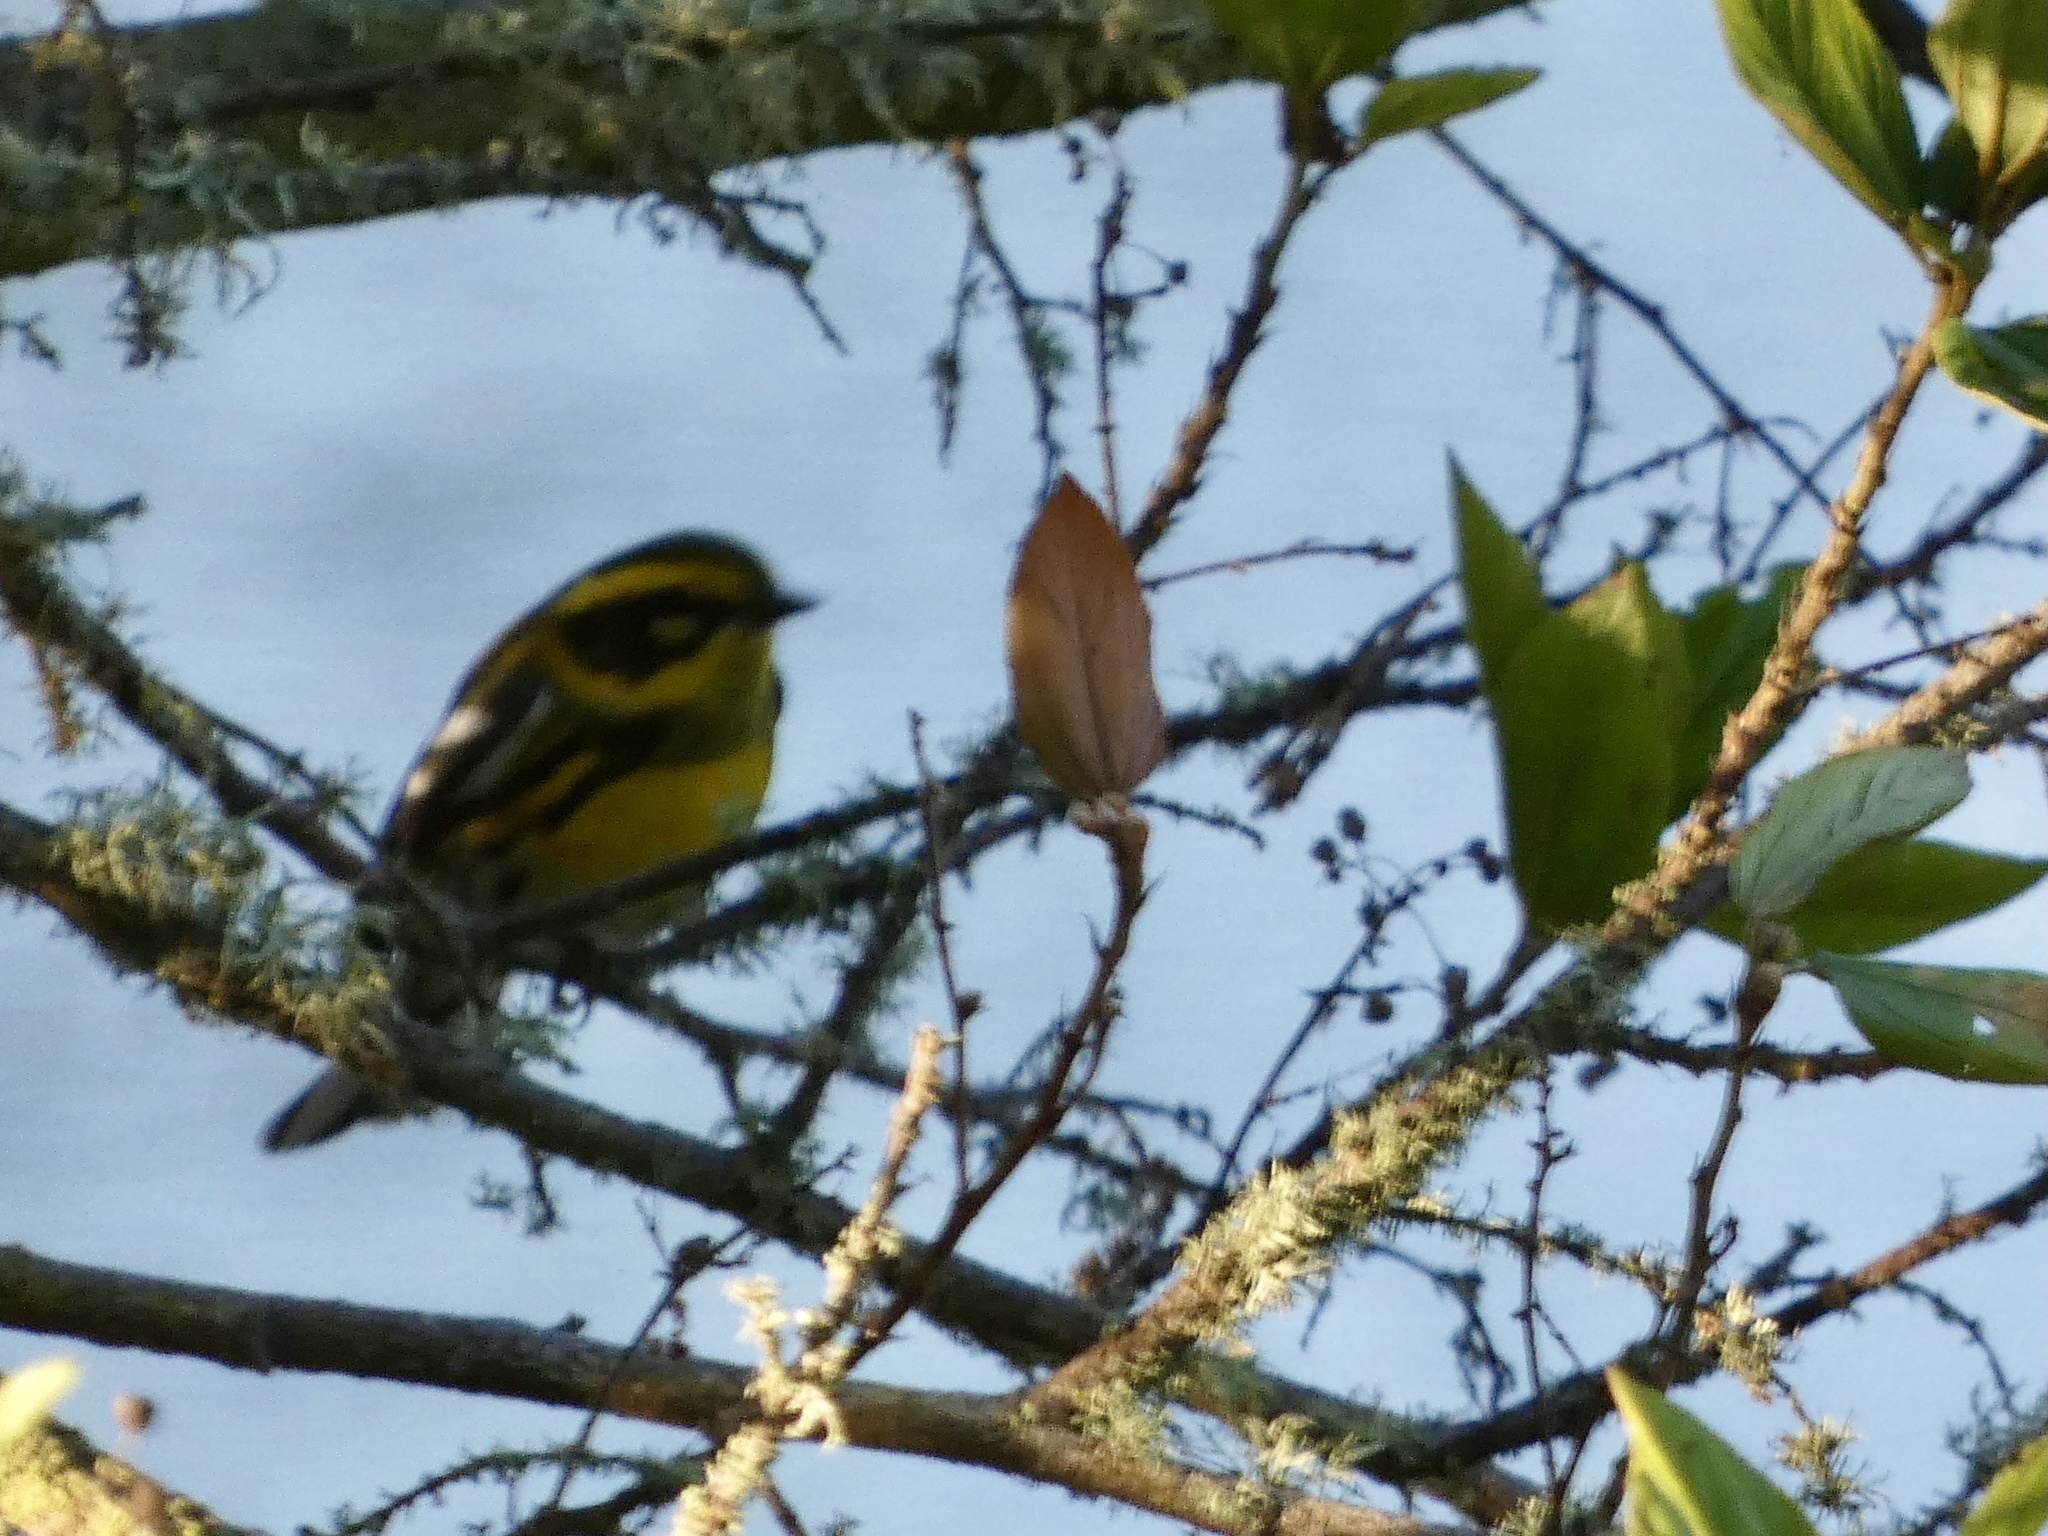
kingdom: Animalia
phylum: Chordata
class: Aves
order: Passeriformes
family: Parulidae
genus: Setophaga
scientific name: Setophaga townsendi
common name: Townsend's warbler
